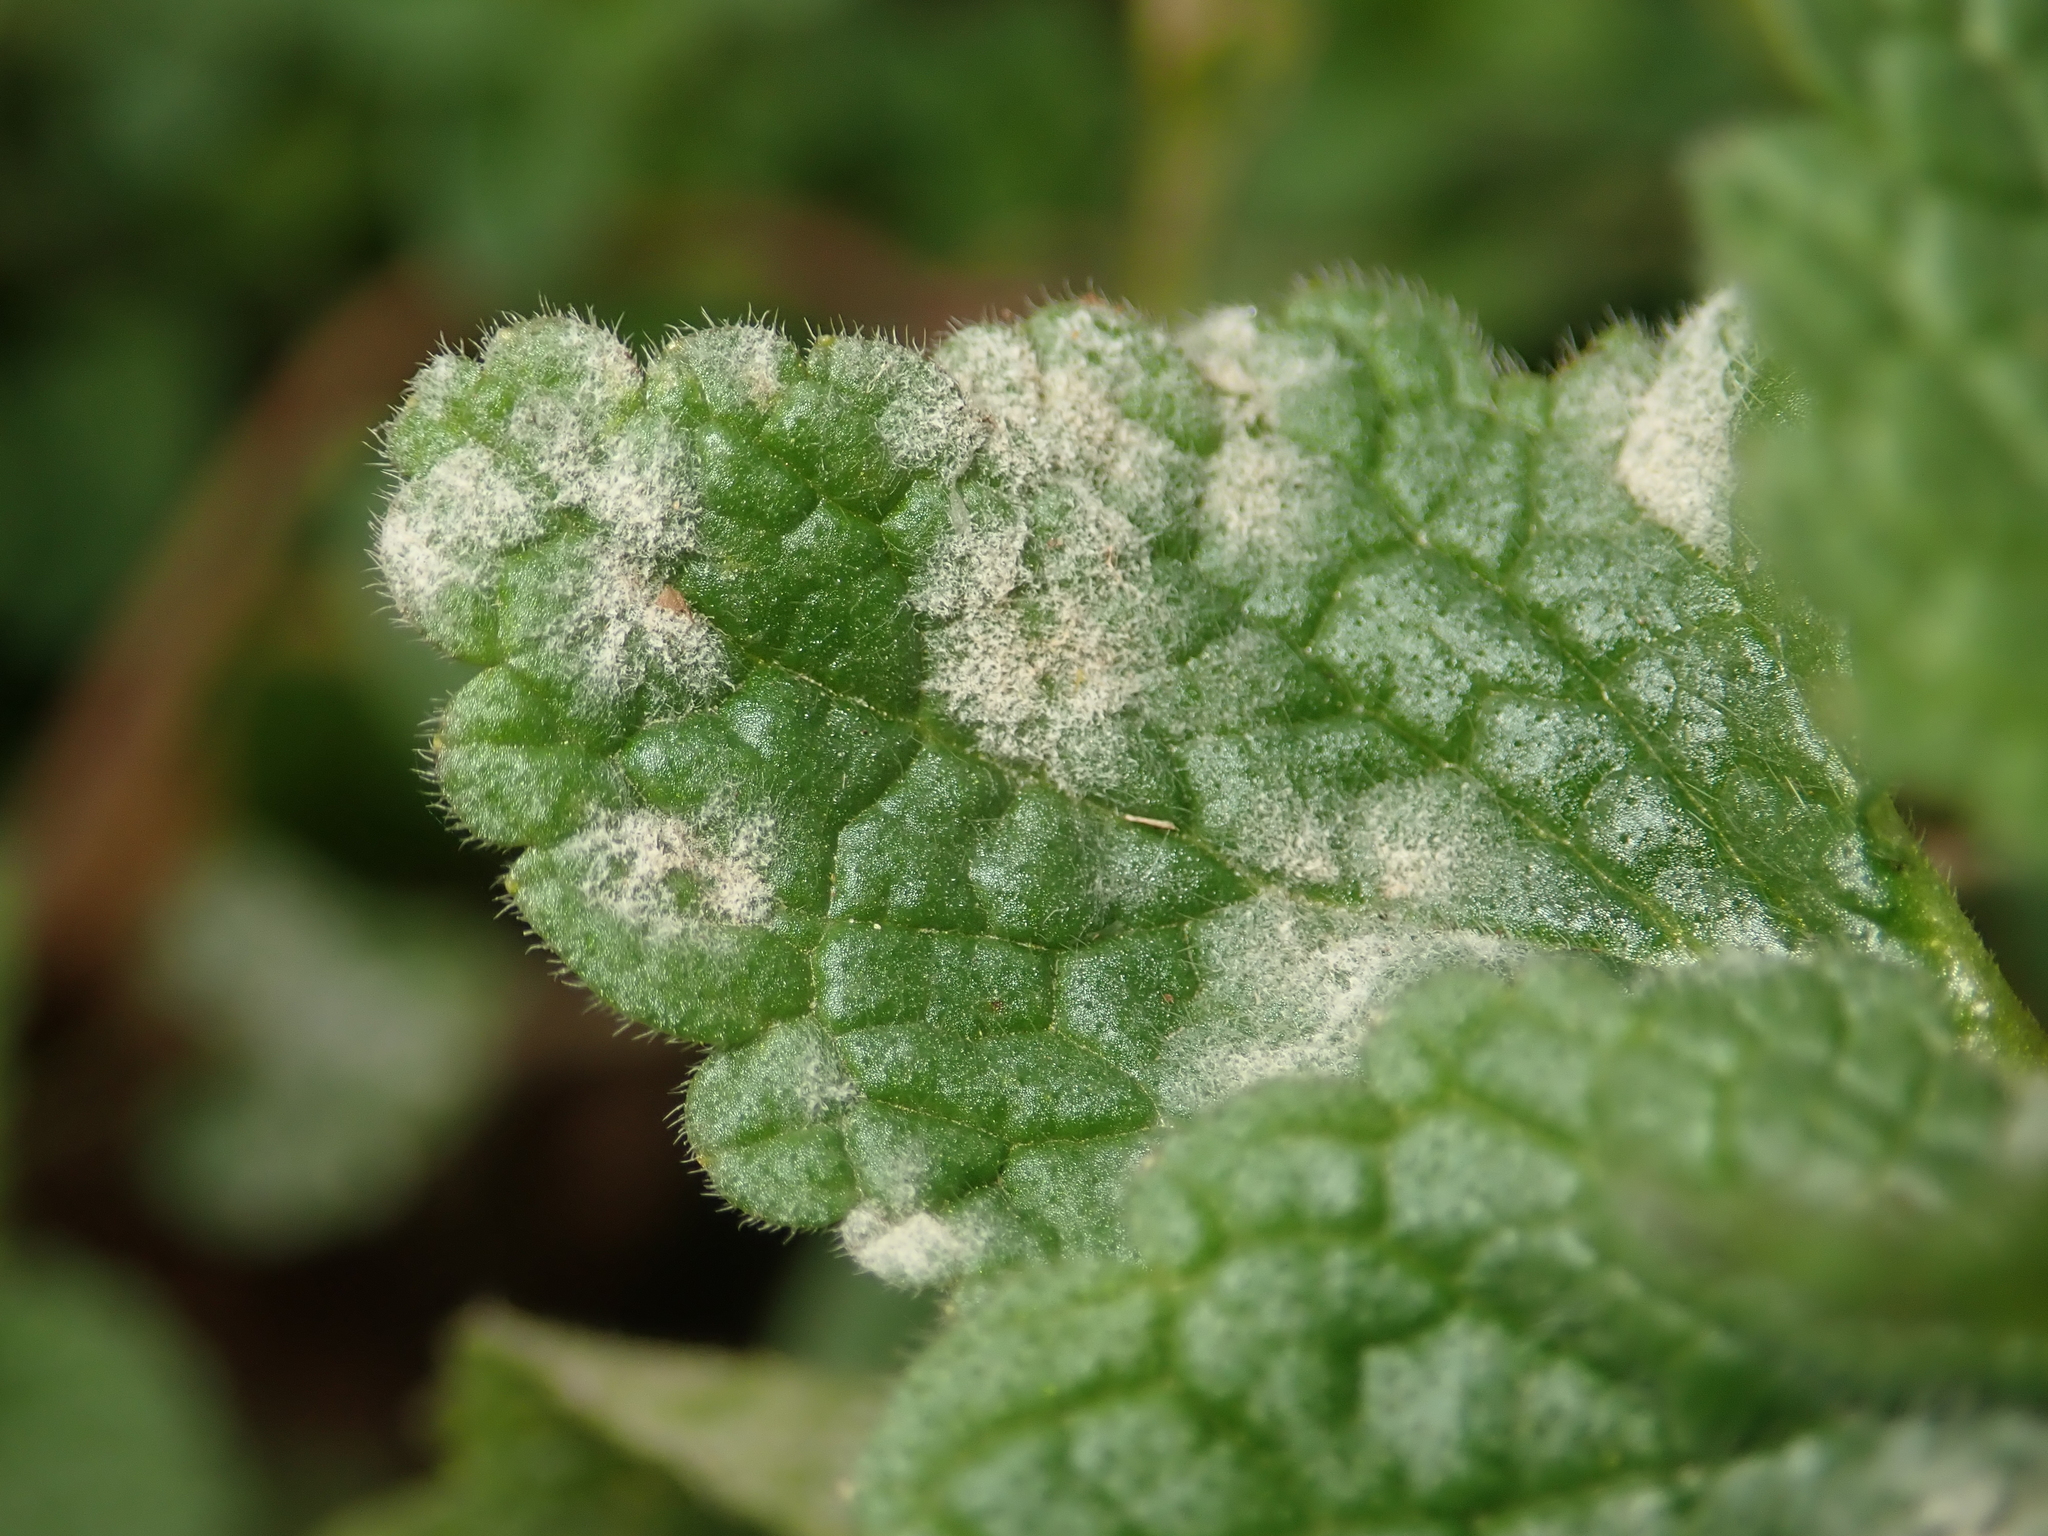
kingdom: Fungi
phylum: Ascomycota
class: Leotiomycetes
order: Helotiales
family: Erysiphaceae
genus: Neoerysiphe
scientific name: Neoerysiphe galeopsidis
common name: Mint mildew
